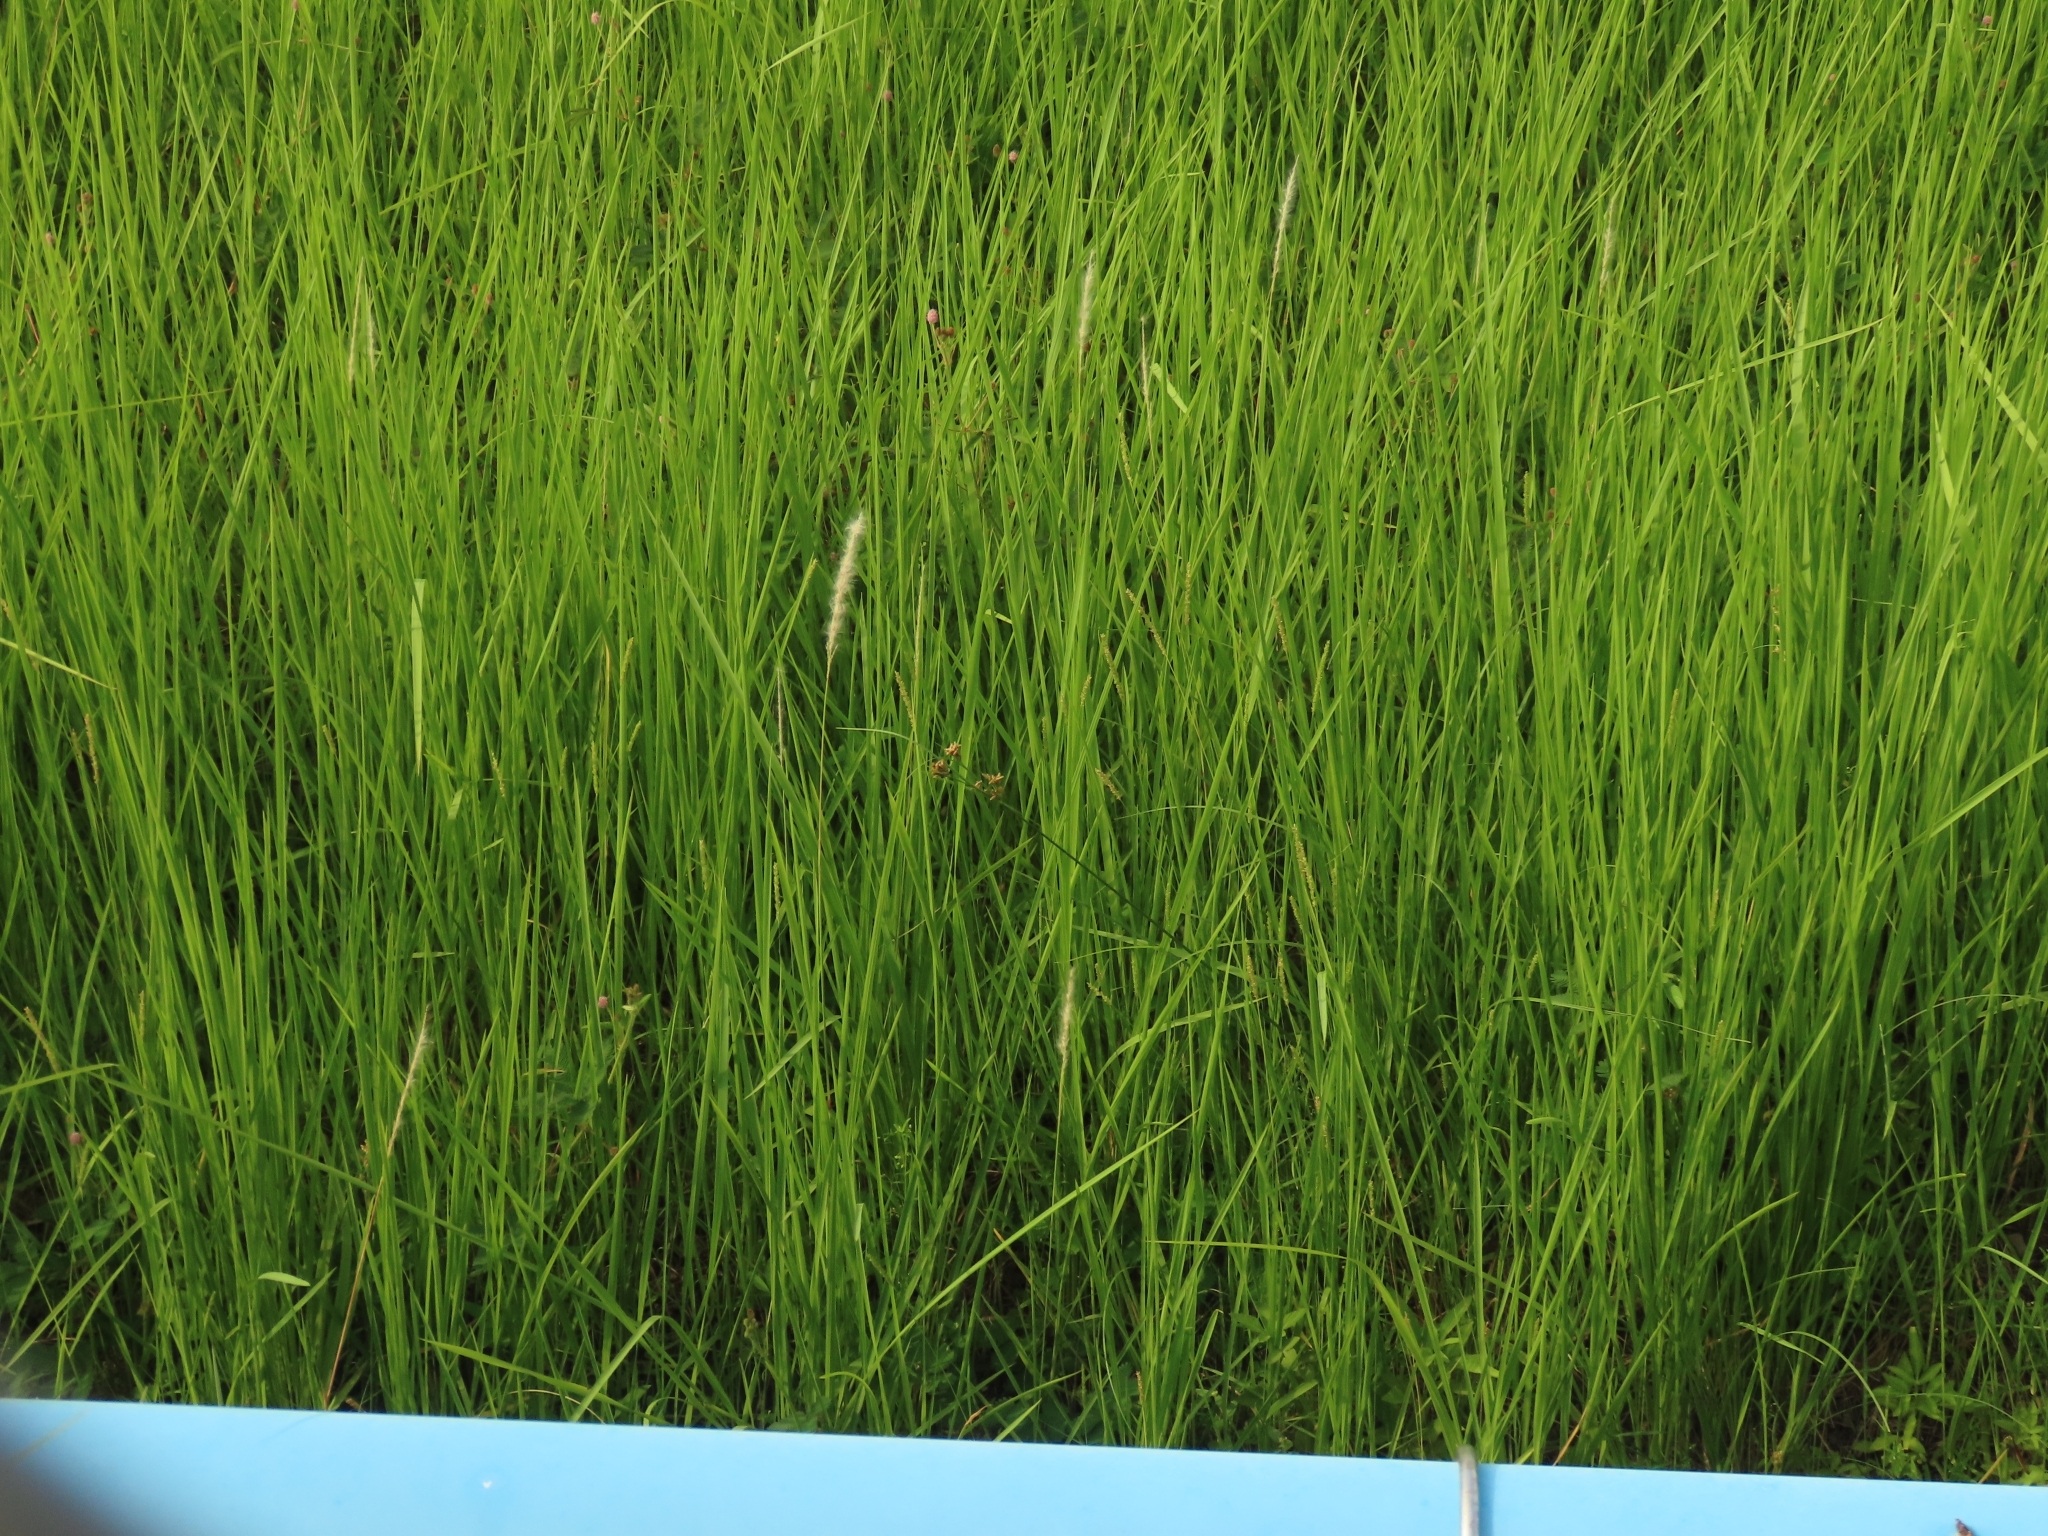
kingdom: Plantae
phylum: Tracheophyta
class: Liliopsida
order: Poales
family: Cyperaceae
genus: Fimbristylis
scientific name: Fimbristylis dichotoma
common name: Forked fimbry
